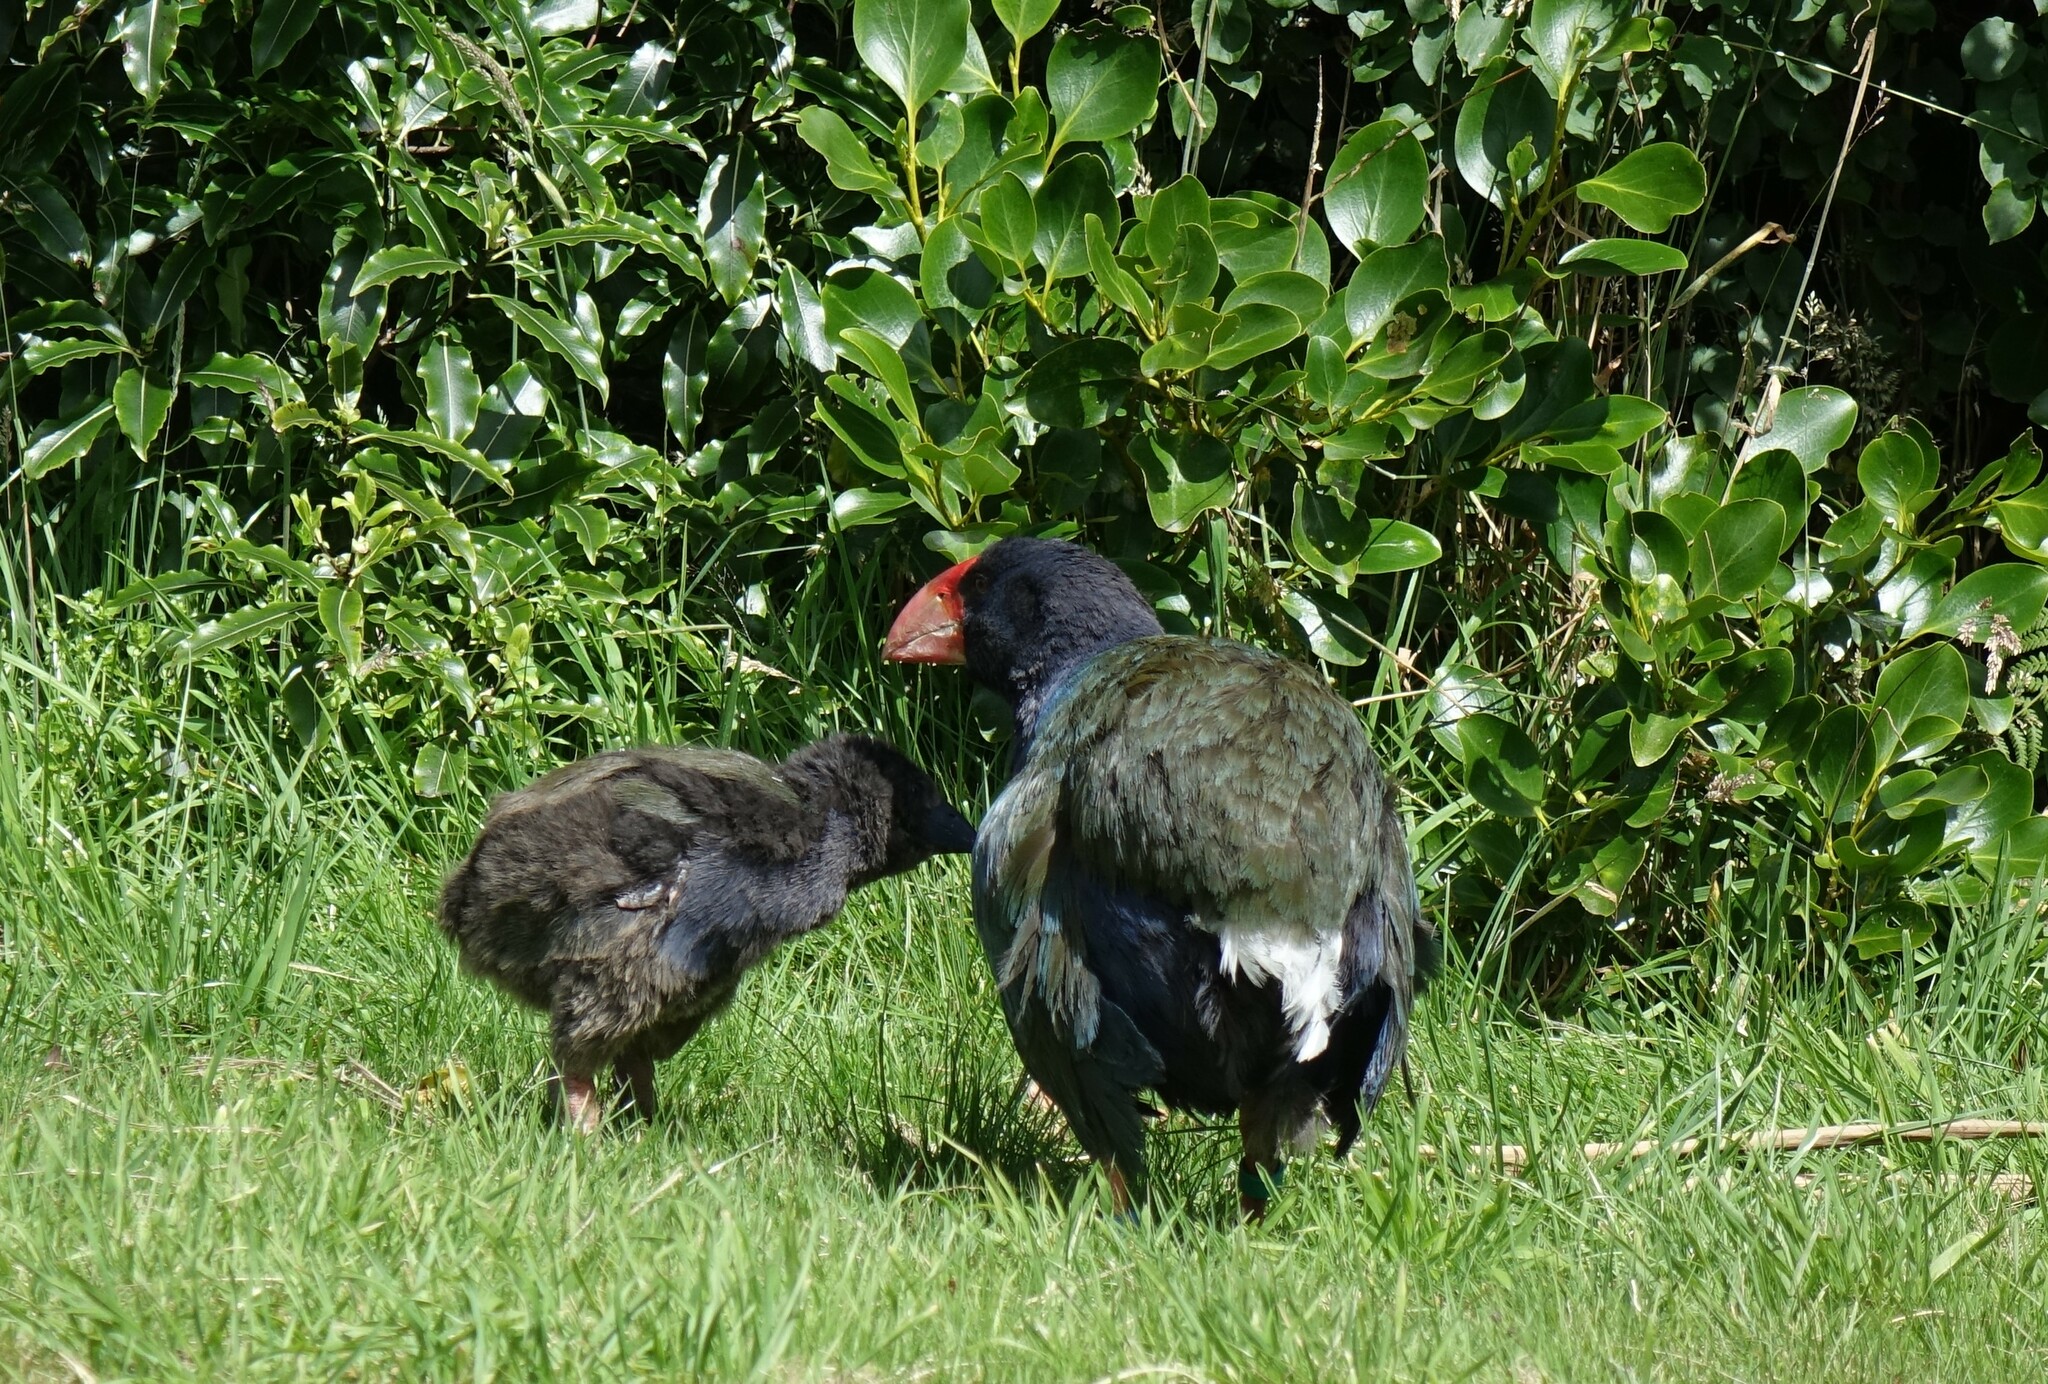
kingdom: Animalia
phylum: Chordata
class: Aves
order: Gruiformes
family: Rallidae
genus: Porphyrio
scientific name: Porphyrio hochstetteri
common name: South island takahe
